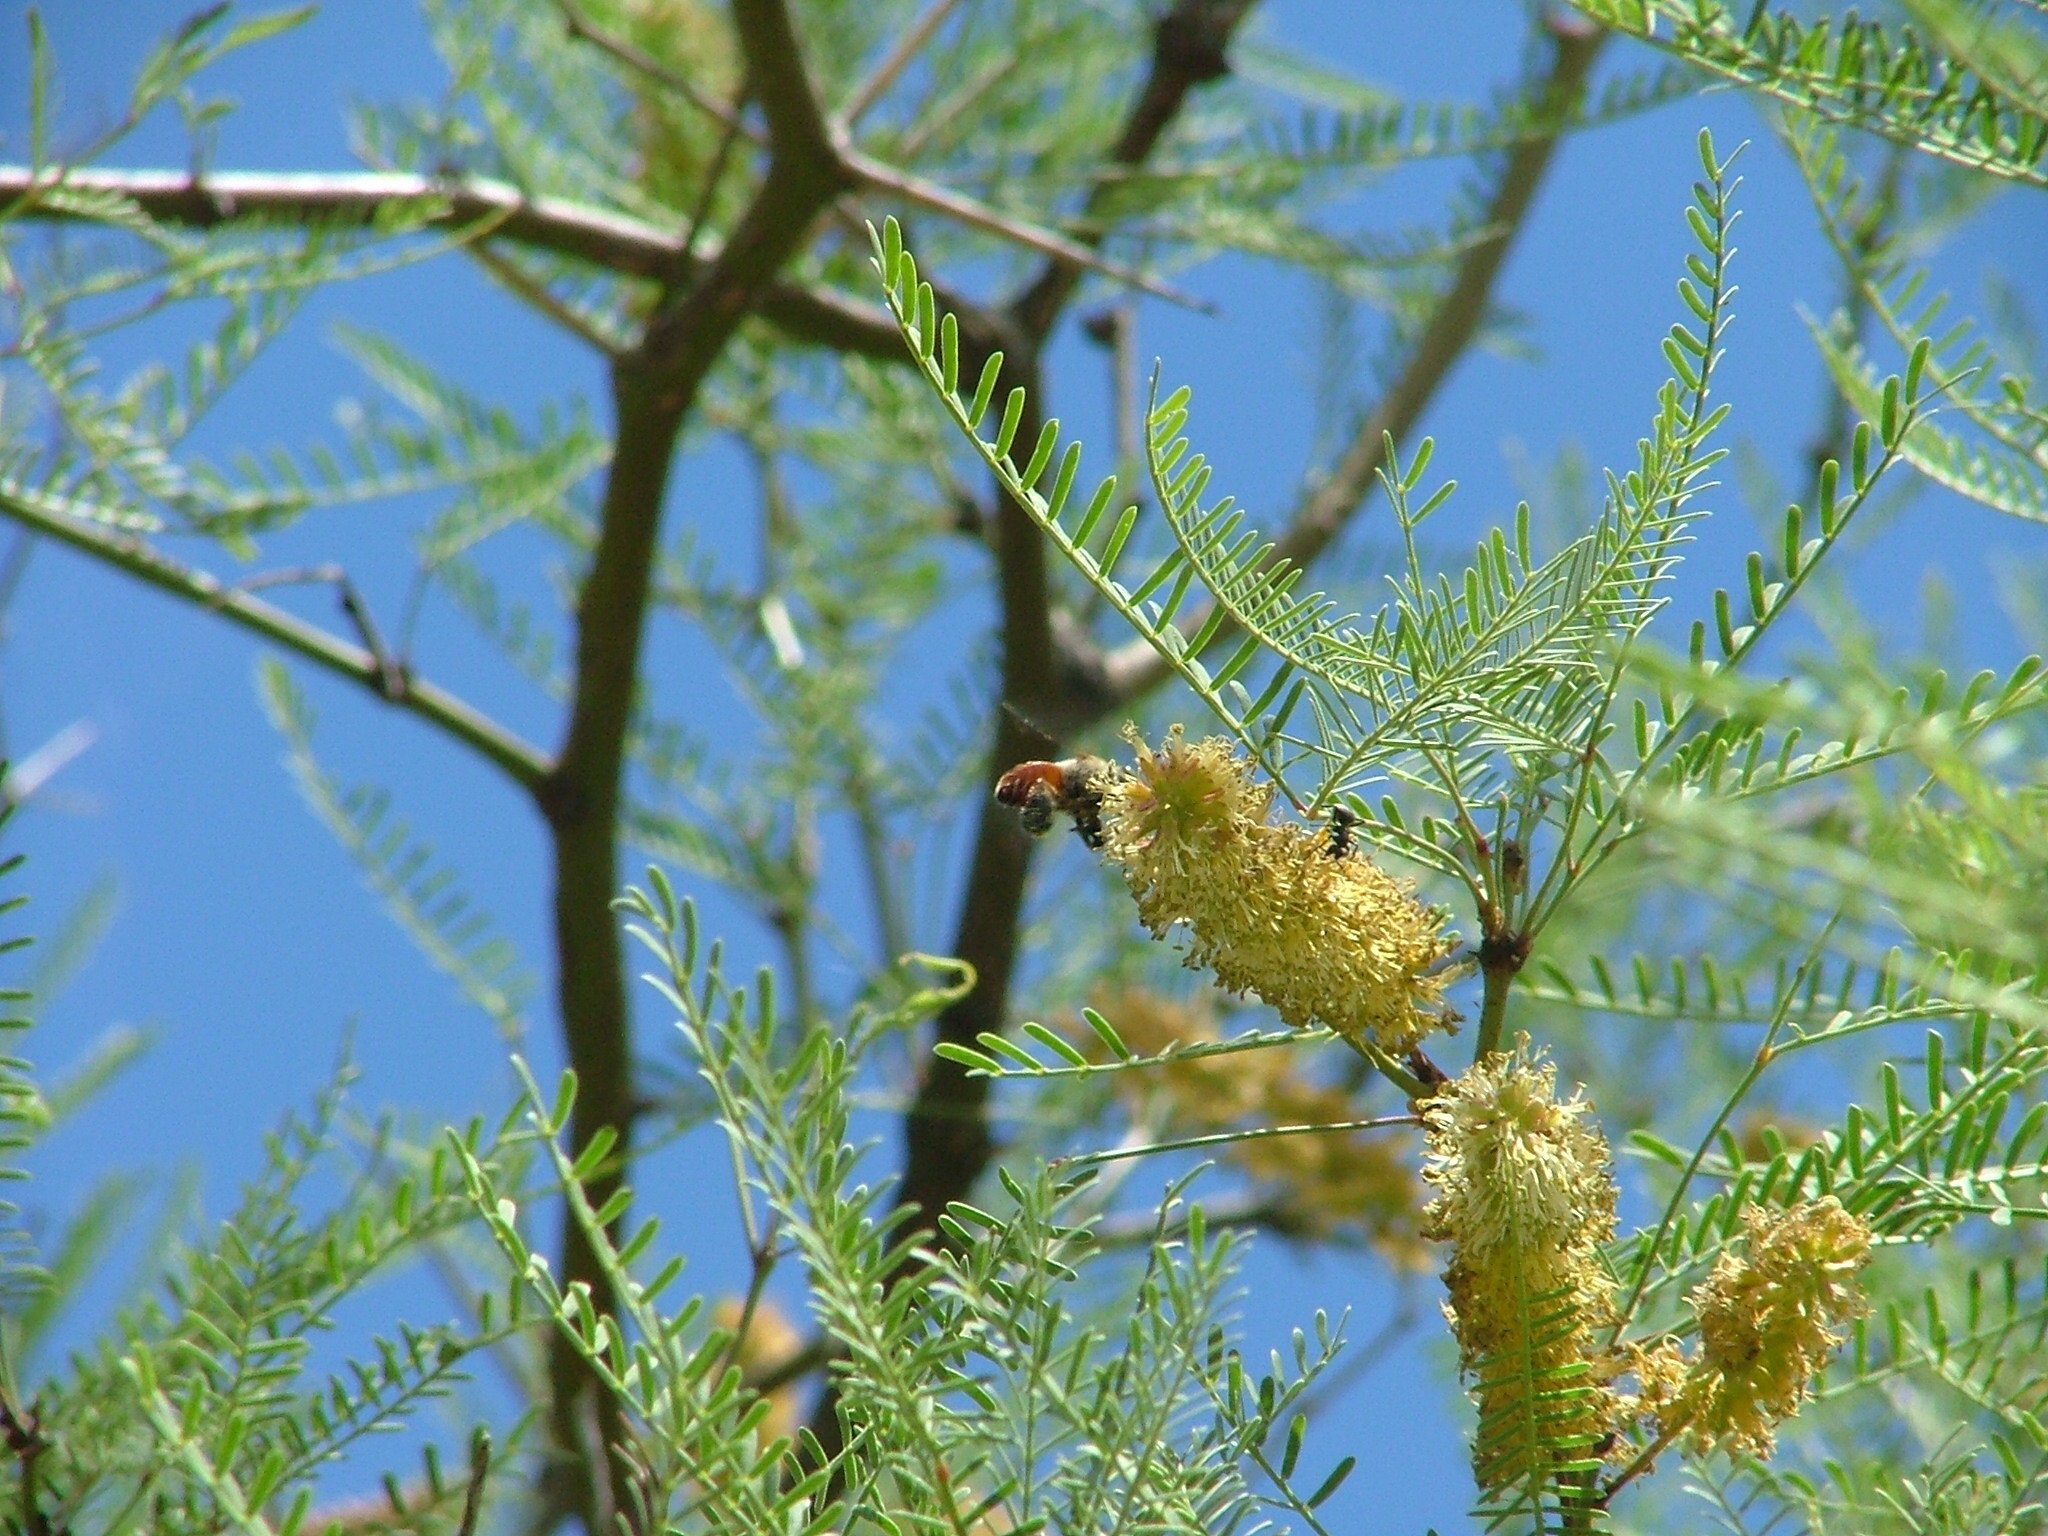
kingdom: Plantae
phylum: Tracheophyta
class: Magnoliopsida
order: Fabales
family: Fabaceae
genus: Prosopis
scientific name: Prosopis flexuosa
